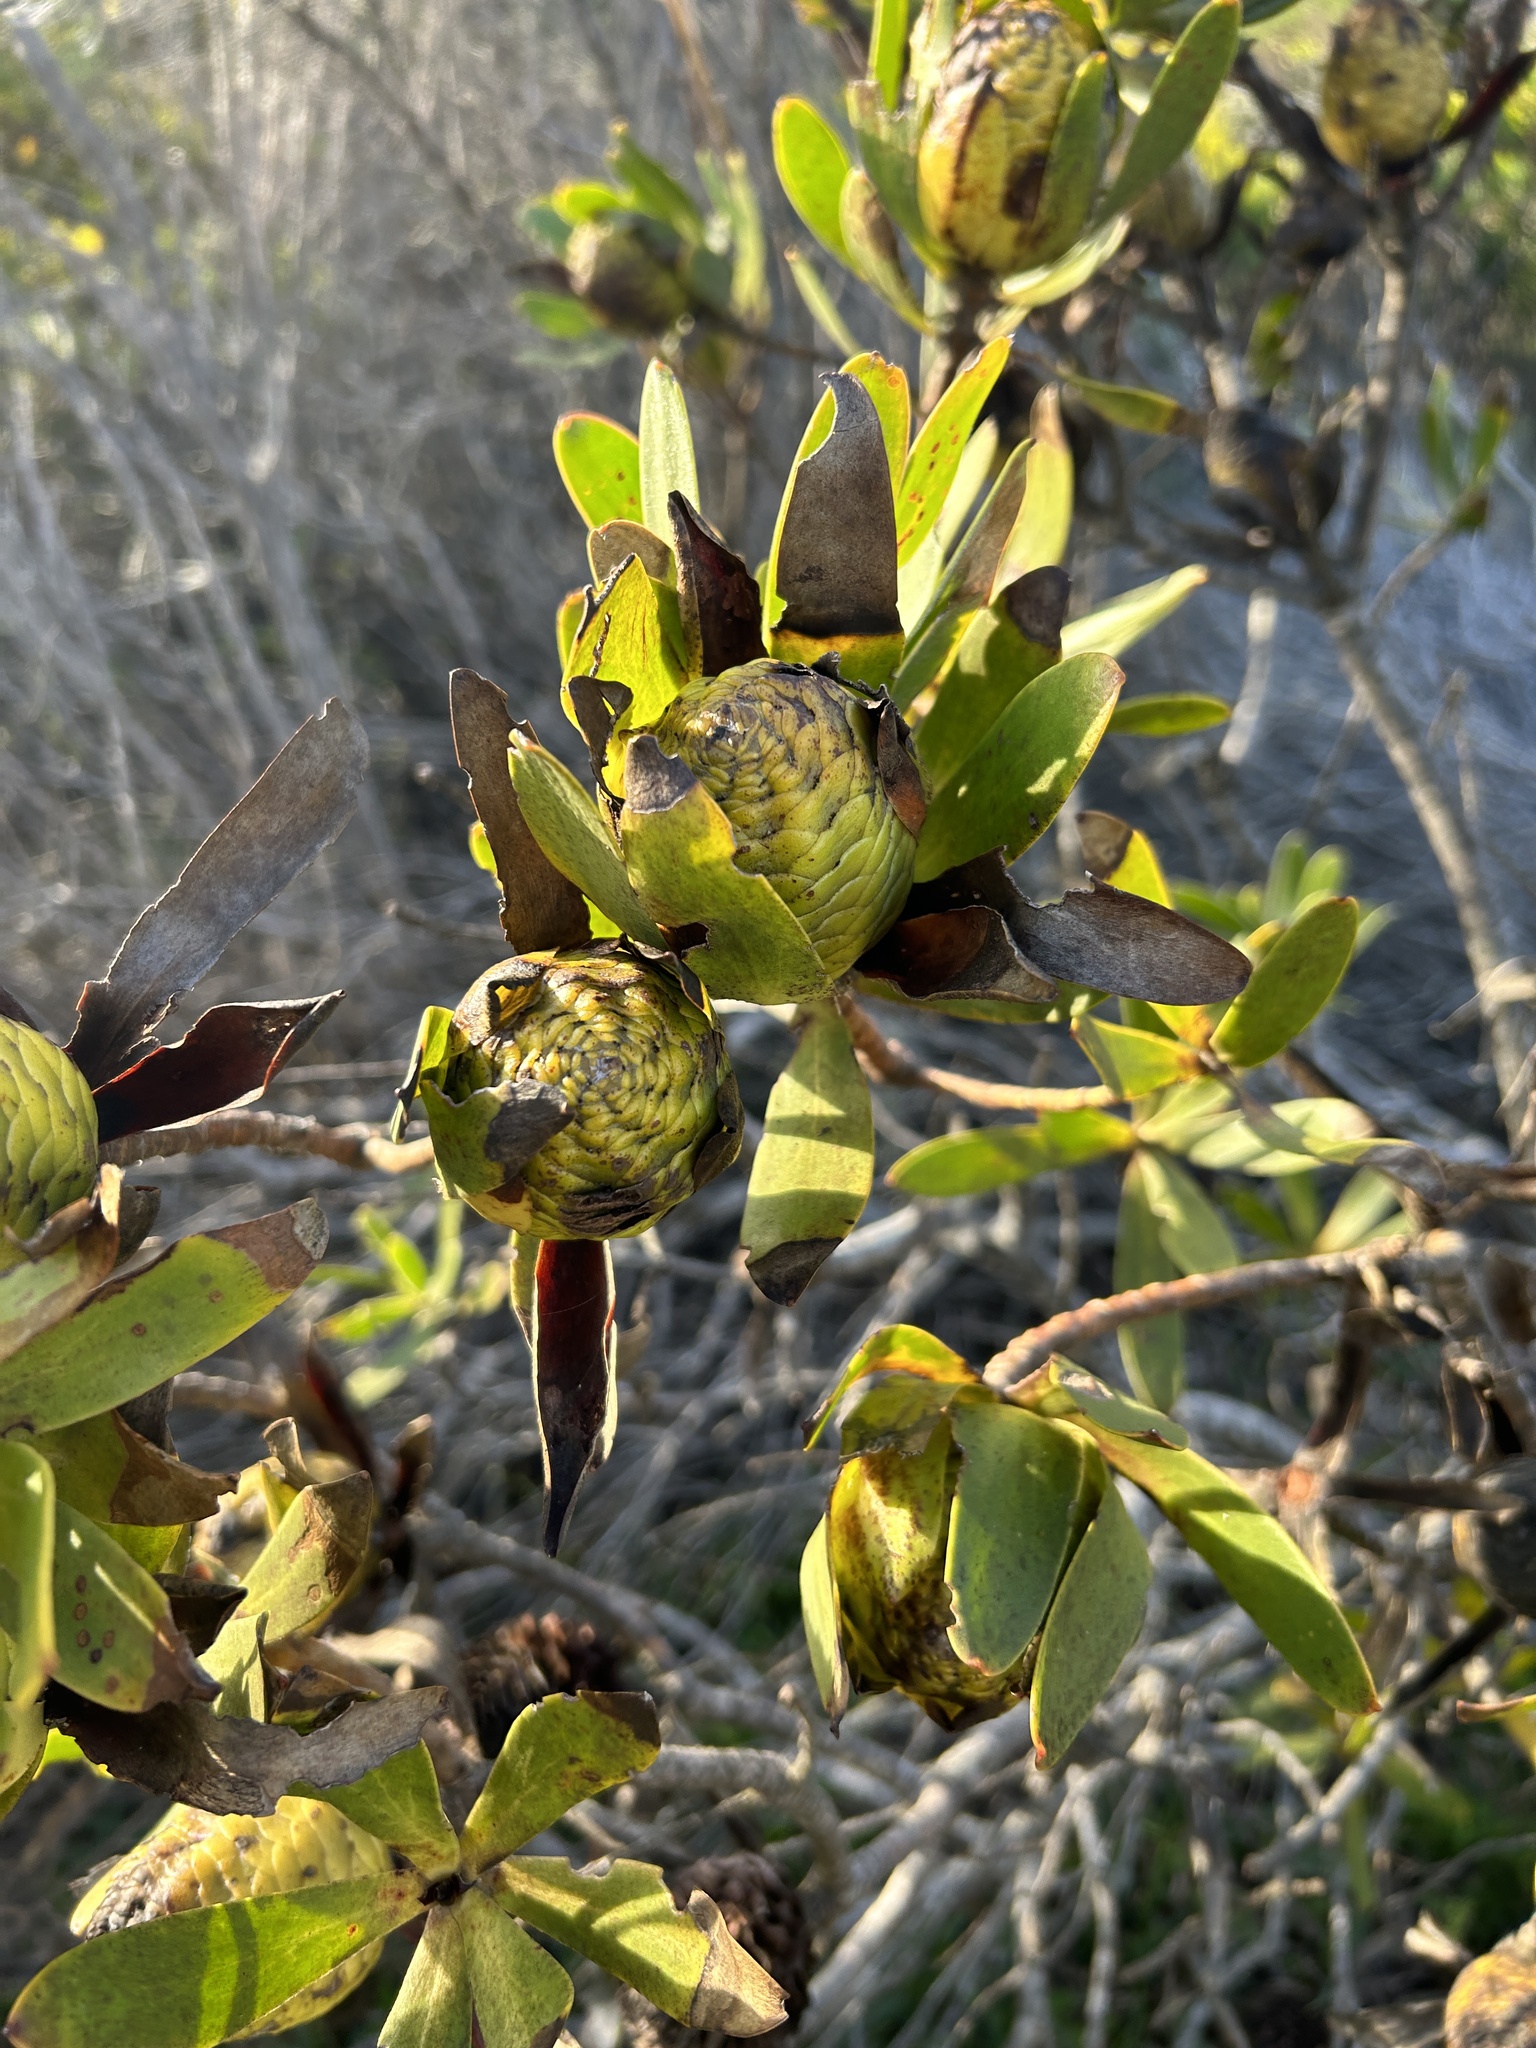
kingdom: Plantae
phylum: Tracheophyta
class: Magnoliopsida
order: Proteales
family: Proteaceae
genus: Leucadendron
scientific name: Leucadendron laureolum
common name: Golden sunshinebush
